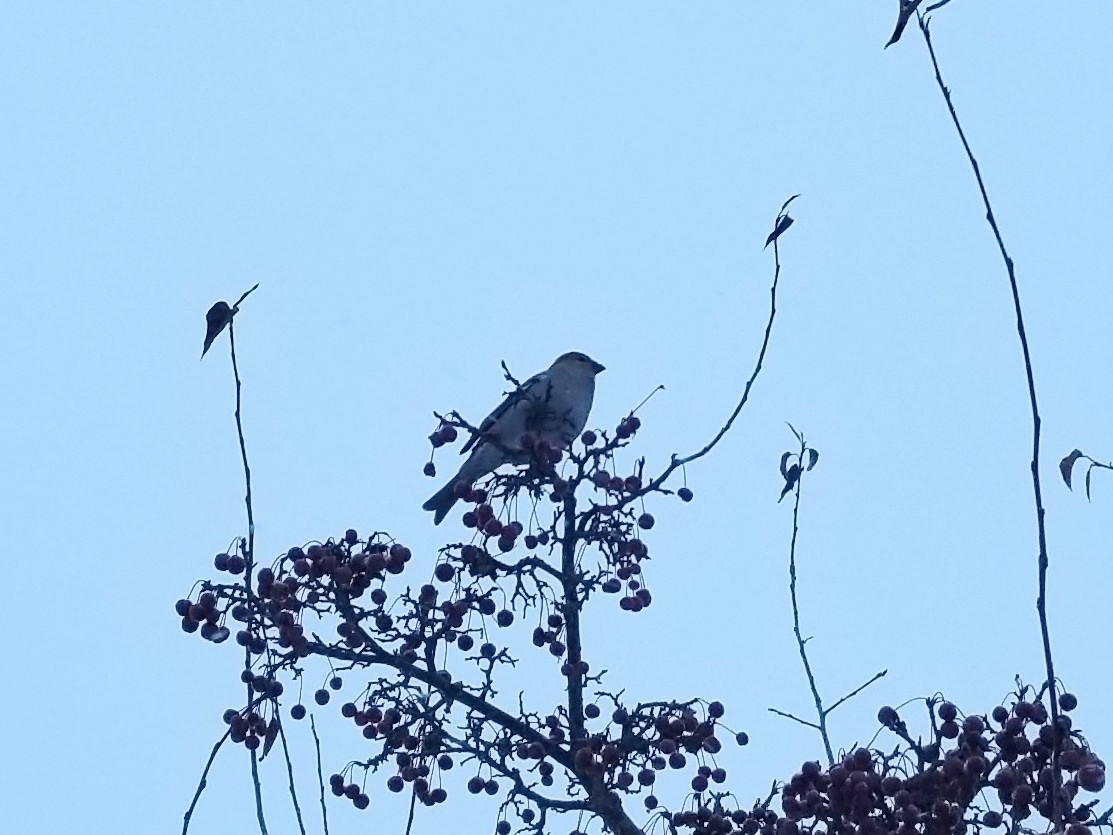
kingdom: Animalia
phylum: Chordata
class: Aves
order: Passeriformes
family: Fringillidae
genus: Pinicola
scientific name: Pinicola enucleator
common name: Pine grosbeak
